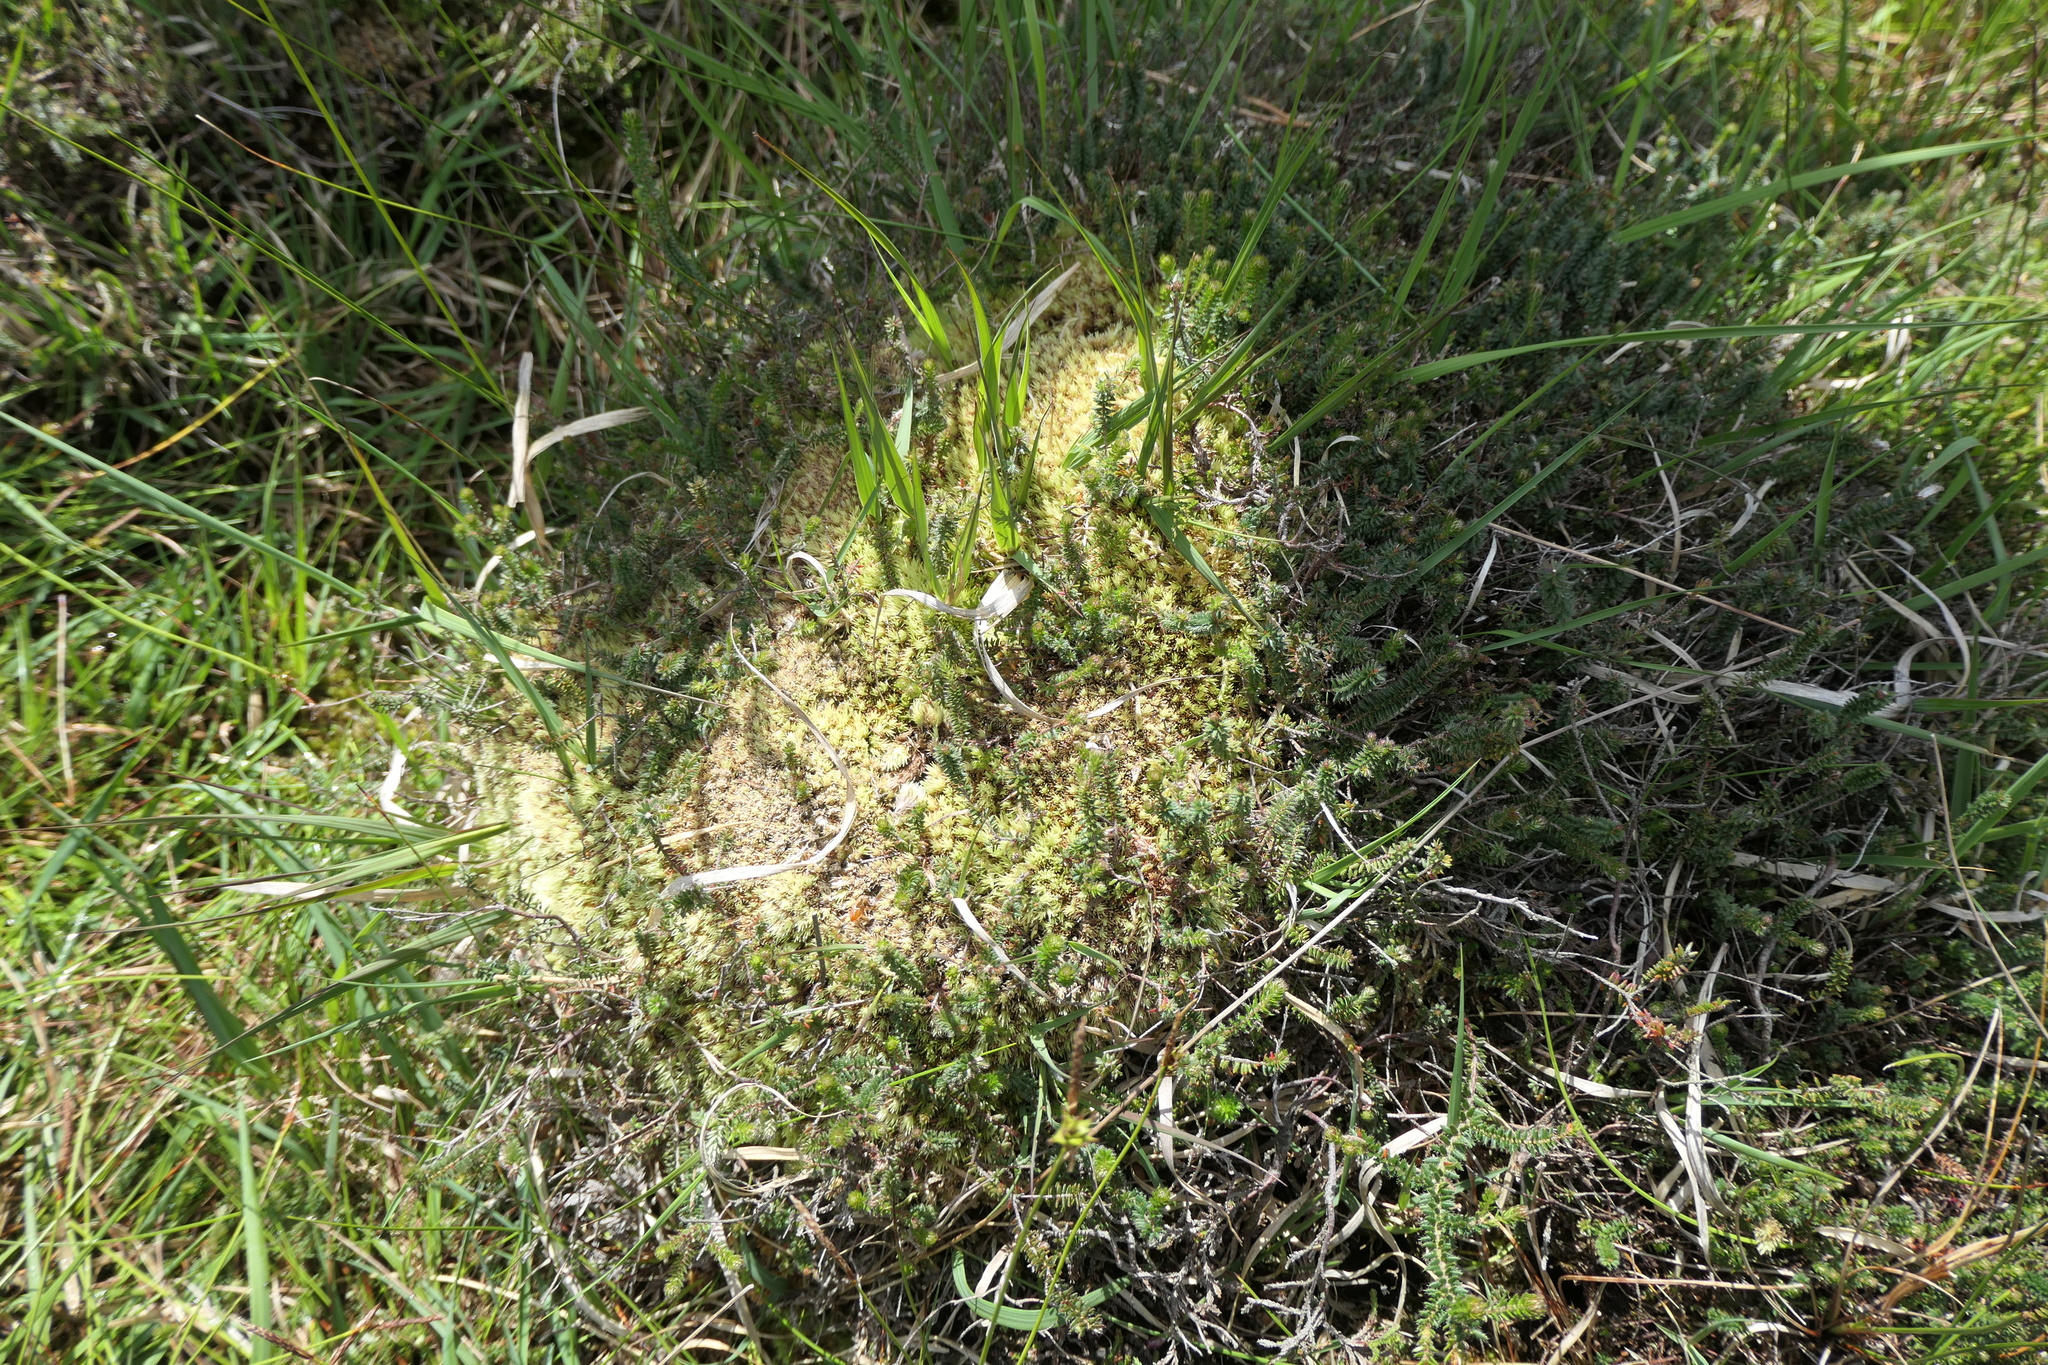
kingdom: Plantae
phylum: Bryophyta
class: Bryopsida
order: Dicranales
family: Leucobryaceae
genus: Leucobryum
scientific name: Leucobryum glaucum
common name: Large white-moss
